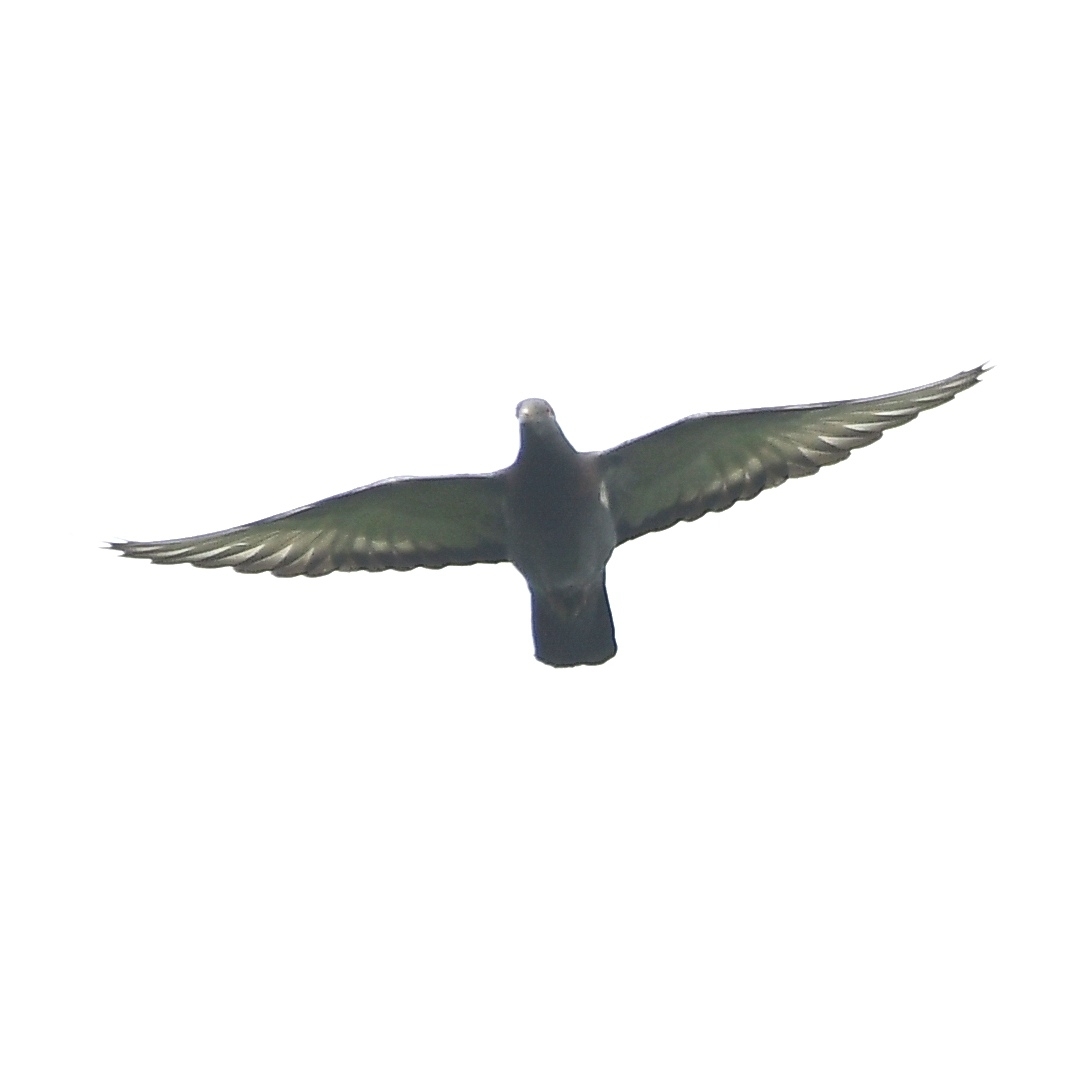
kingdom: Animalia
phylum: Chordata
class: Aves
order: Columbiformes
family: Columbidae
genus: Columba
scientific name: Columba livia
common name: Rock pigeon
